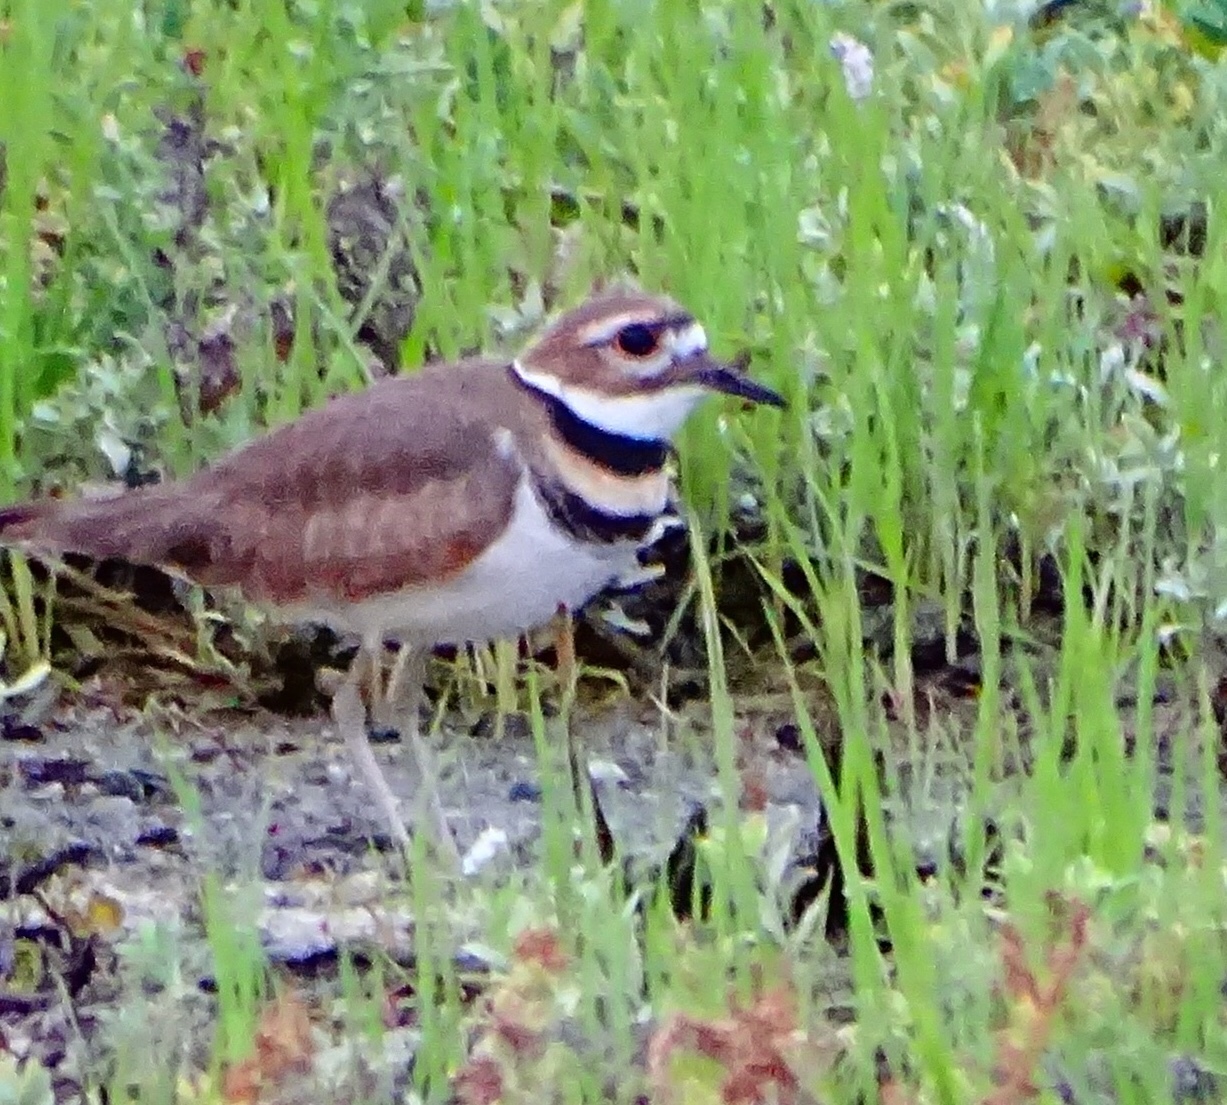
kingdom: Animalia
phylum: Chordata
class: Aves
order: Charadriiformes
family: Charadriidae
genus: Charadrius
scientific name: Charadrius vociferus
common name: Killdeer
